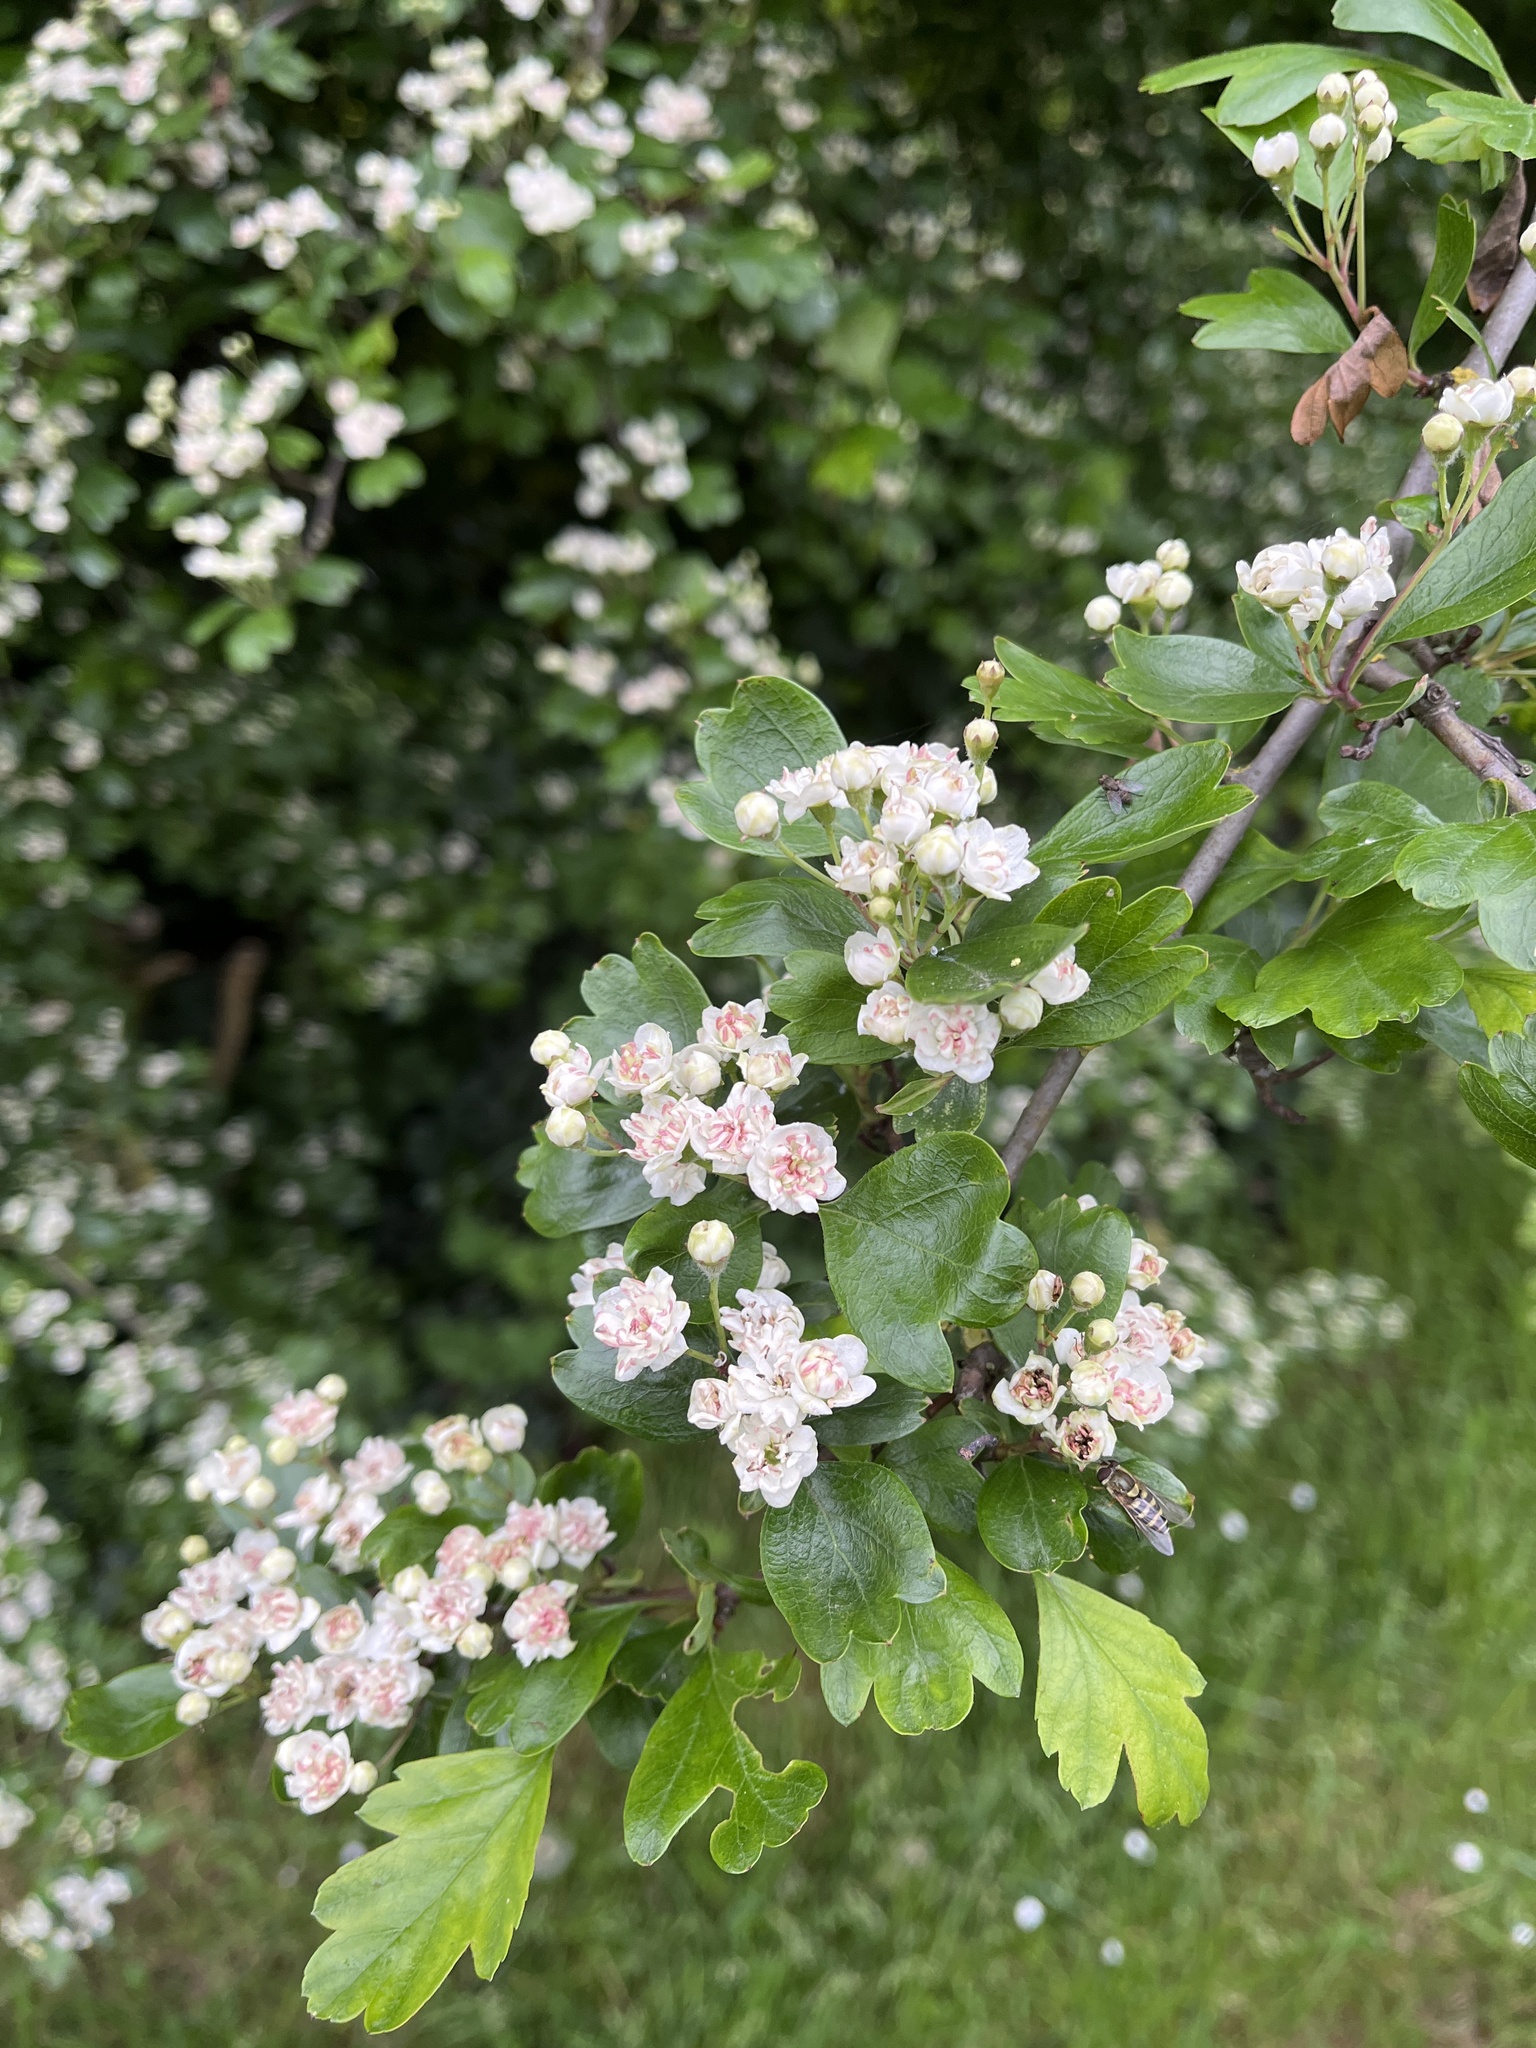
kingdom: Plantae
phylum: Tracheophyta
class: Magnoliopsida
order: Rosales
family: Rosaceae
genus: Crataegus
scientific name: Crataegus media
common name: Intermediate hawthorn
